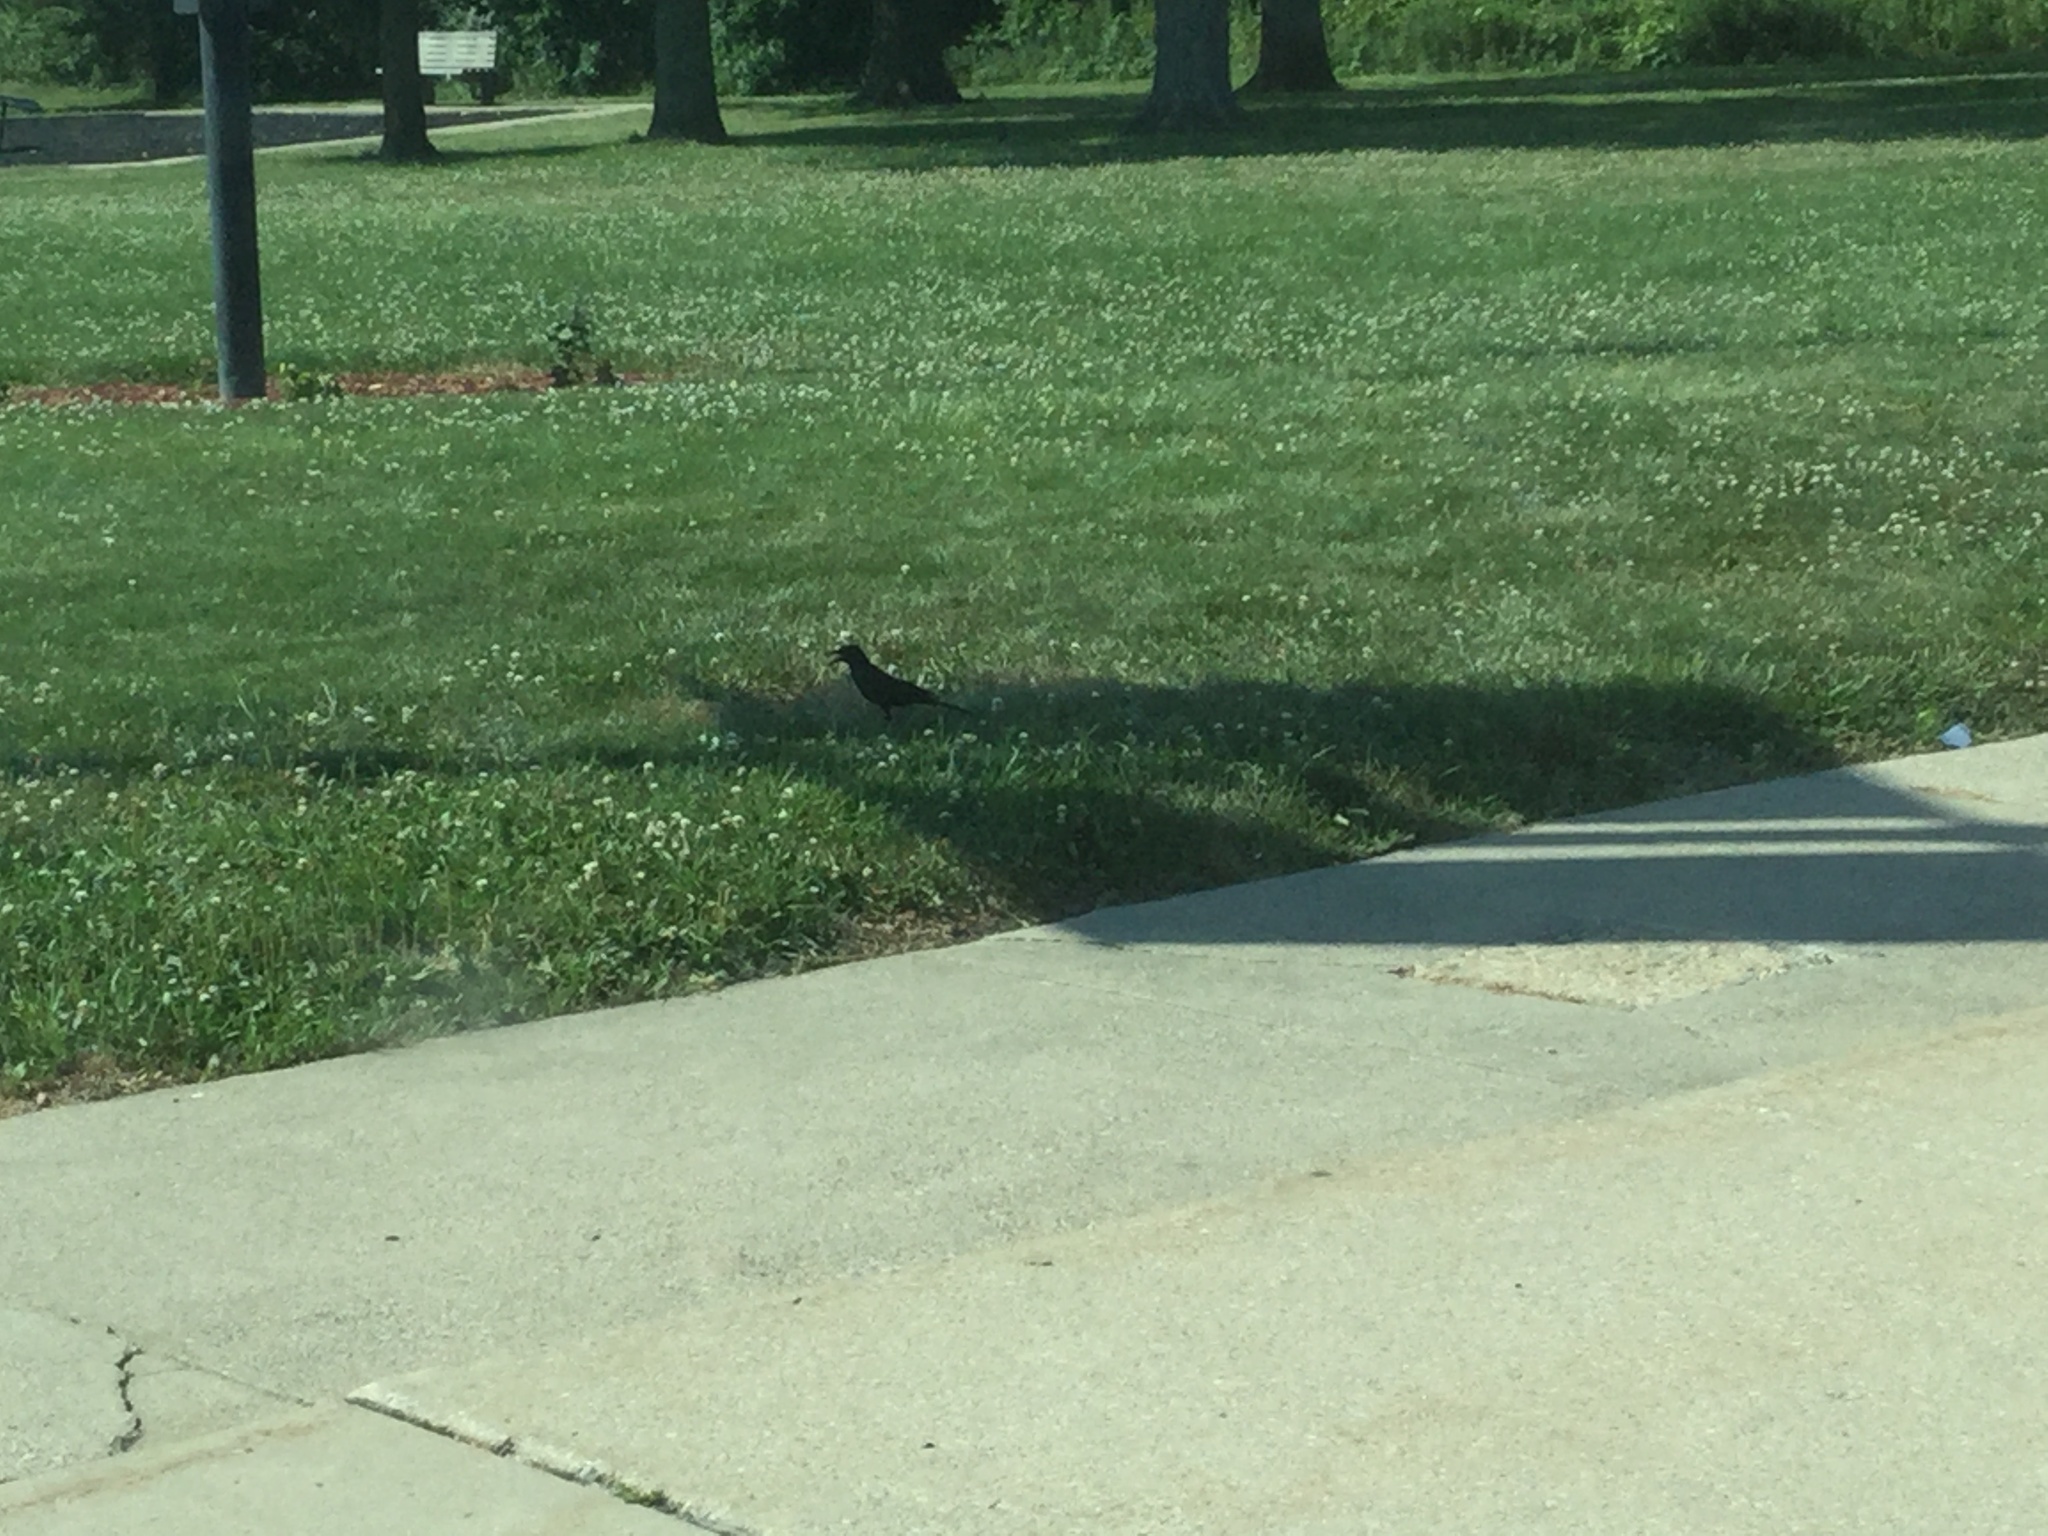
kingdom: Animalia
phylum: Chordata
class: Aves
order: Passeriformes
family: Icteridae
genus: Quiscalus
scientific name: Quiscalus quiscula
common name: Common grackle
